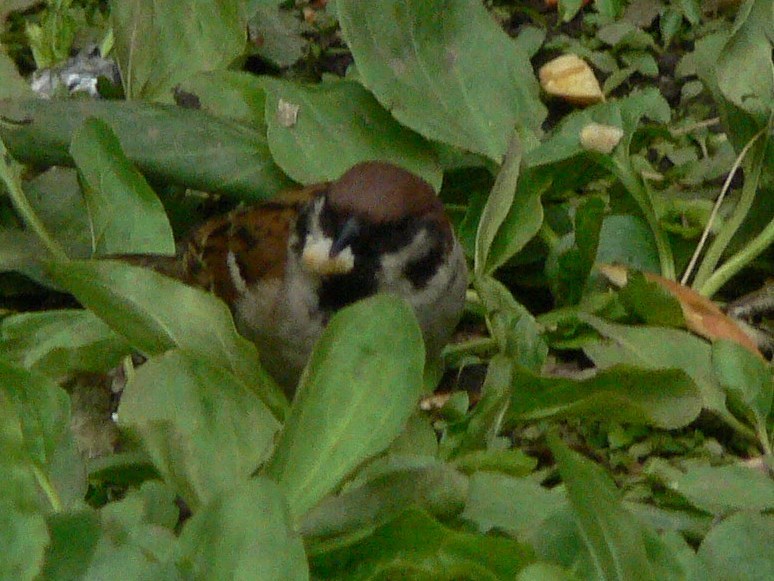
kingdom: Animalia
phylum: Chordata
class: Aves
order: Passeriformes
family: Passeridae
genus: Passer
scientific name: Passer montanus
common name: Eurasian tree sparrow
